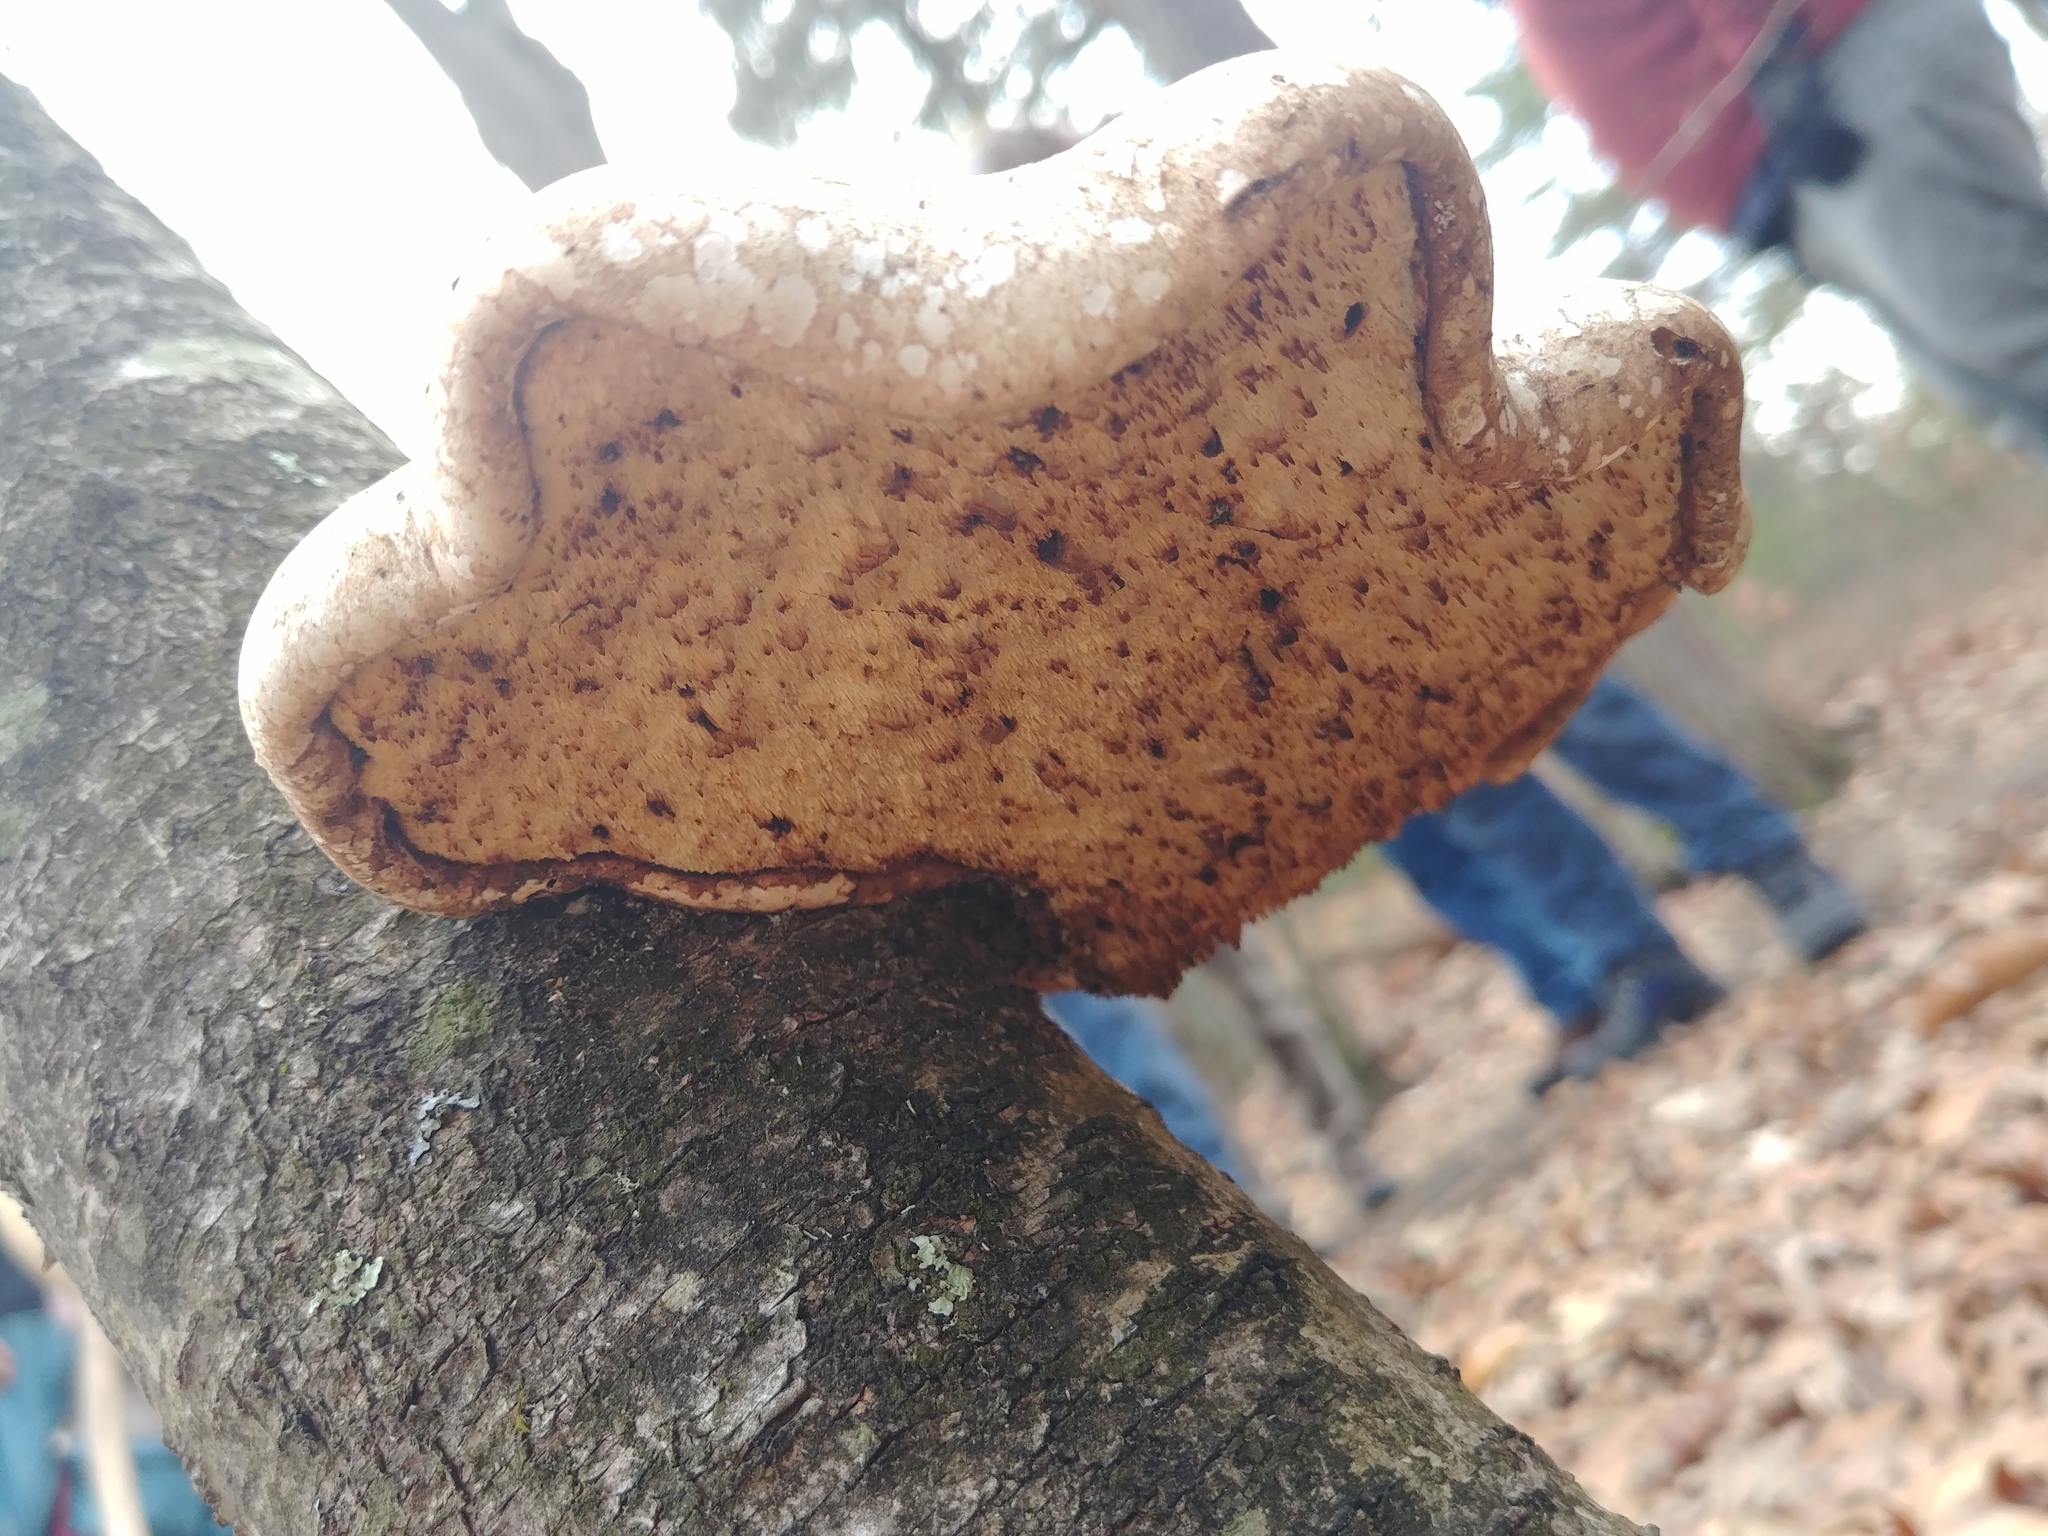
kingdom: Fungi
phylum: Basidiomycota
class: Agaricomycetes
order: Polyporales
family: Fomitopsidaceae
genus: Fomitopsis
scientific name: Fomitopsis betulina
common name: Birch polypore
